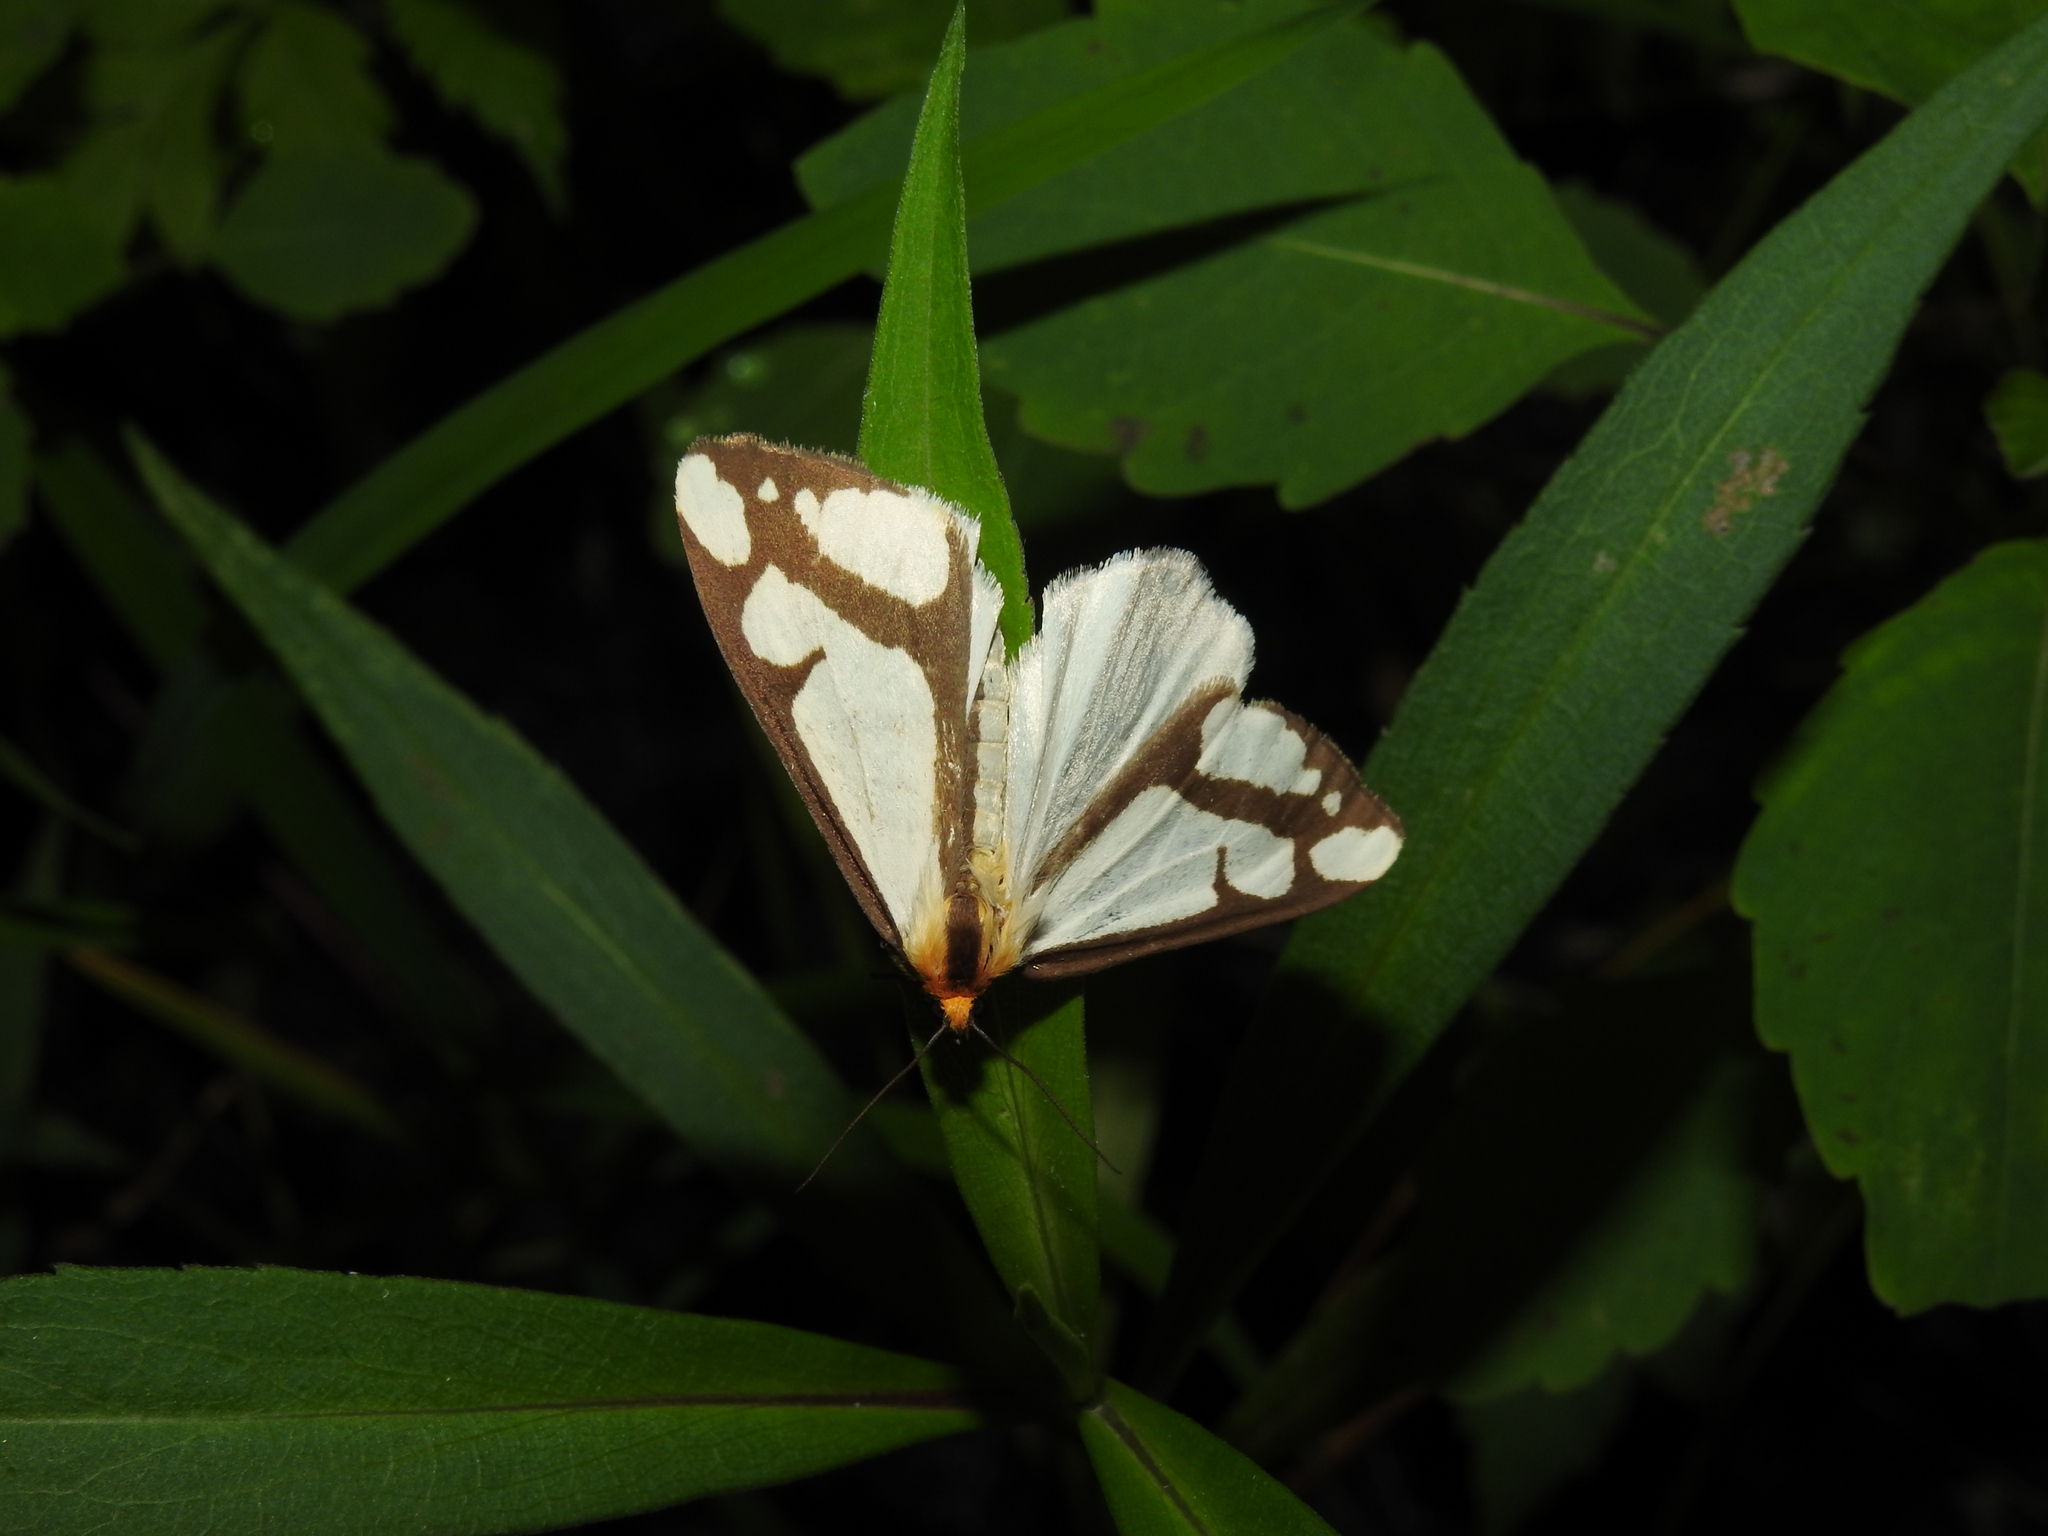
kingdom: Animalia
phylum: Arthropoda
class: Insecta
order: Lepidoptera
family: Erebidae
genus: Haploa
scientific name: Haploa lecontei
